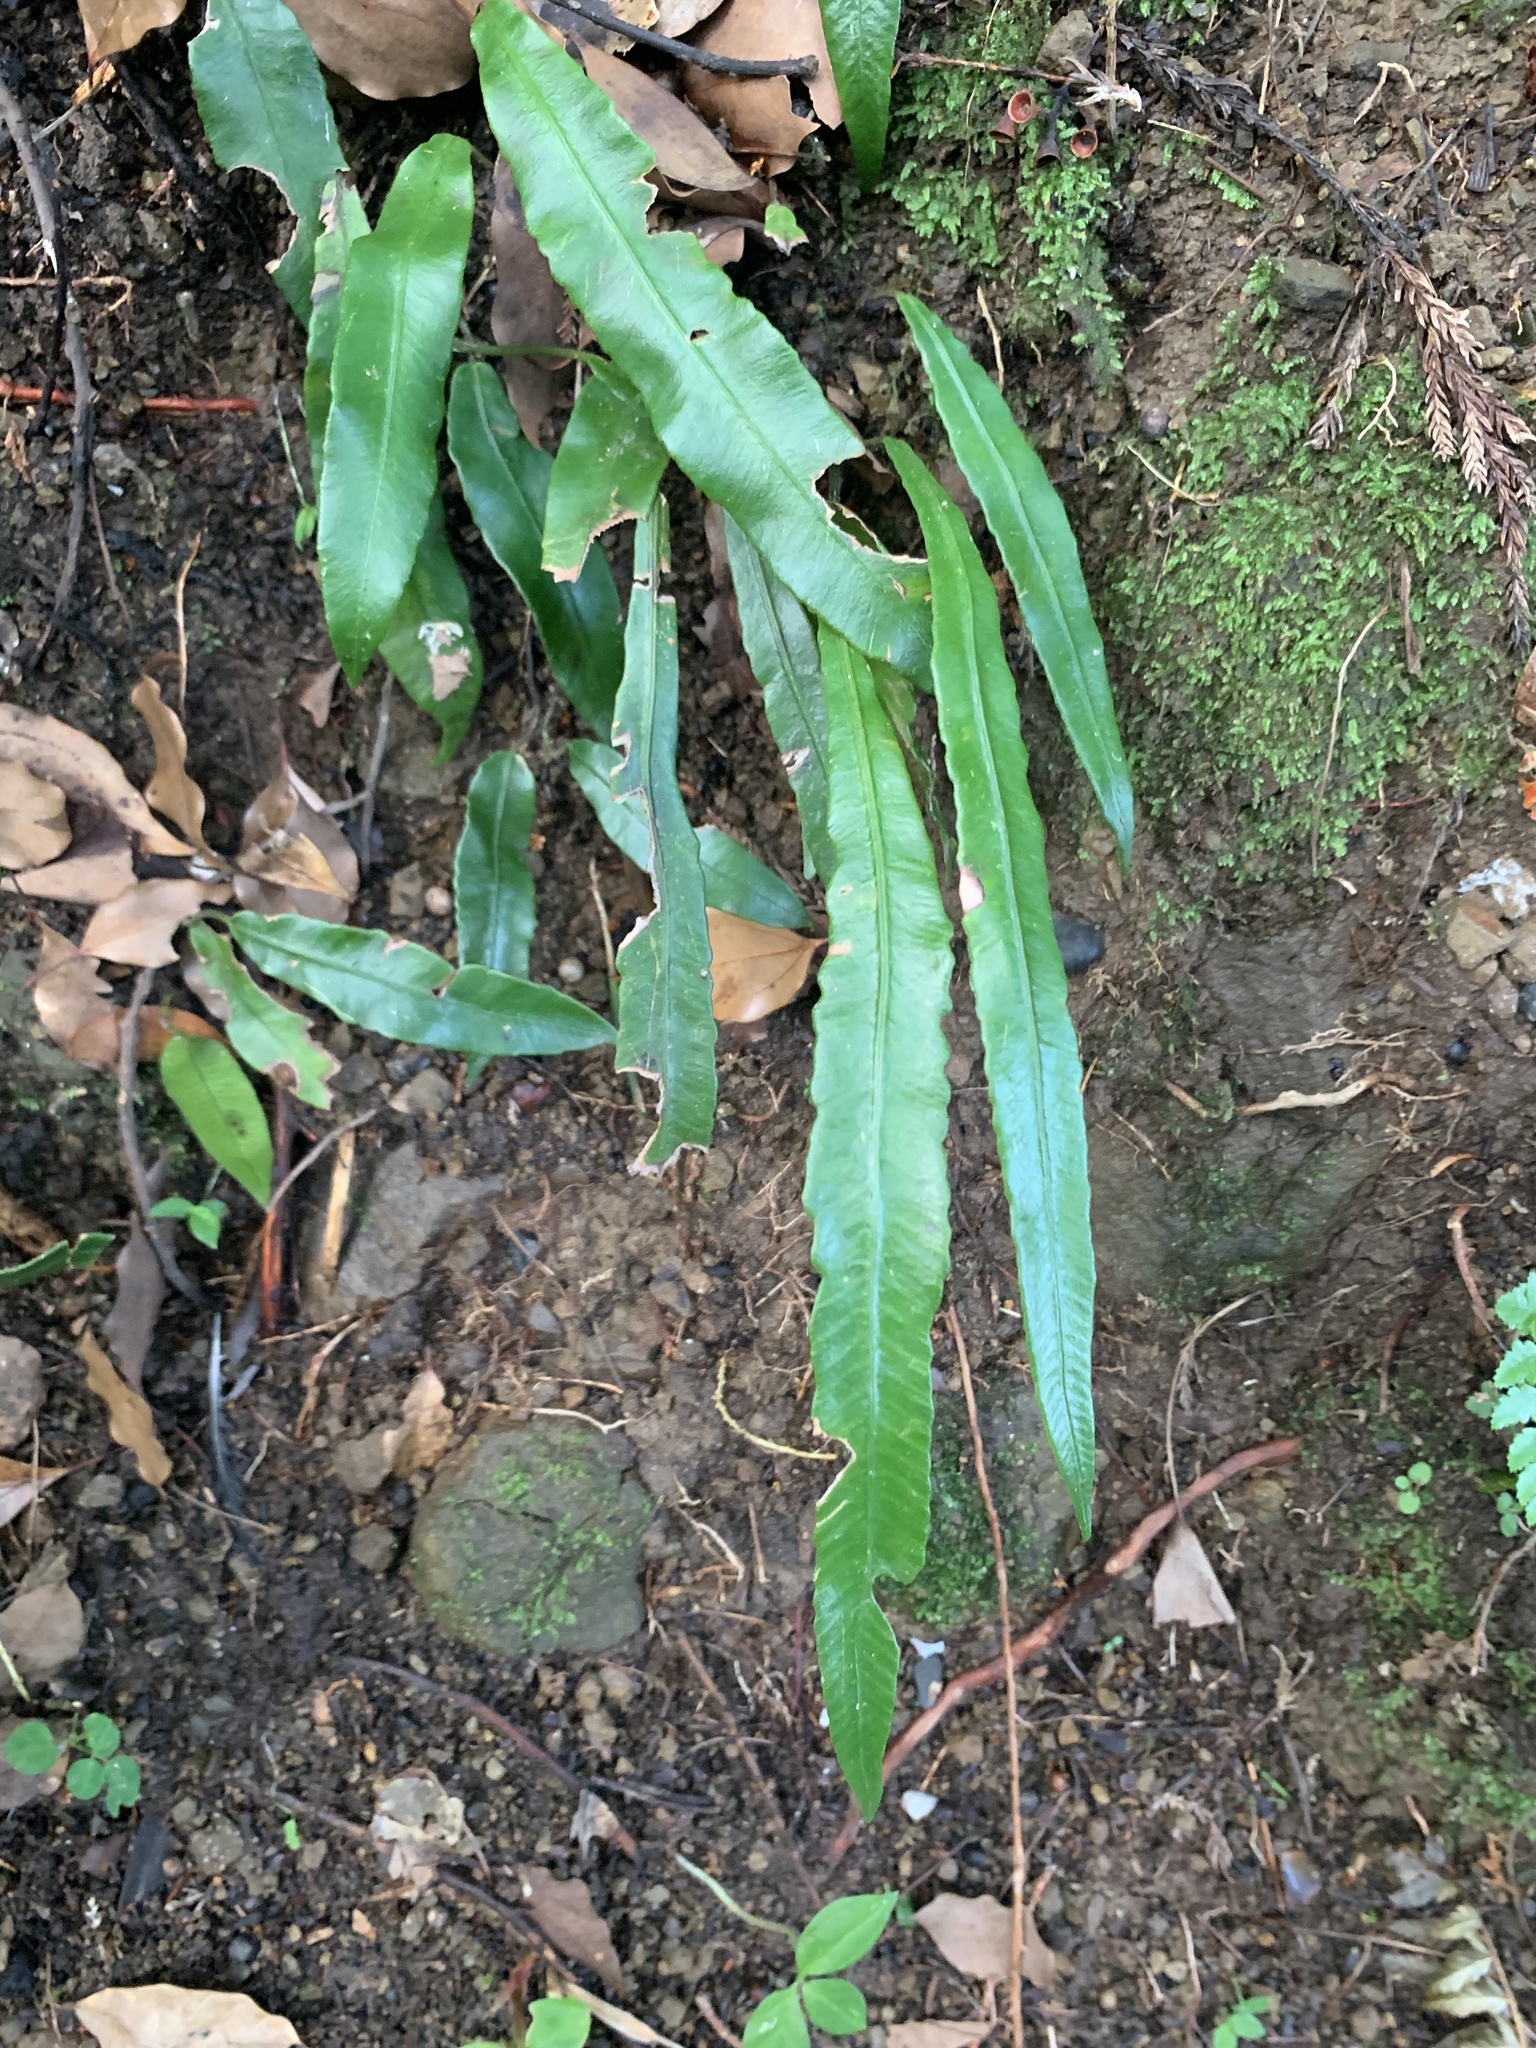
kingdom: Plantae
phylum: Tracheophyta
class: Polypodiopsida
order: Polypodiales
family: Athyriaceae
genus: Deparia
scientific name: Deparia lancea
